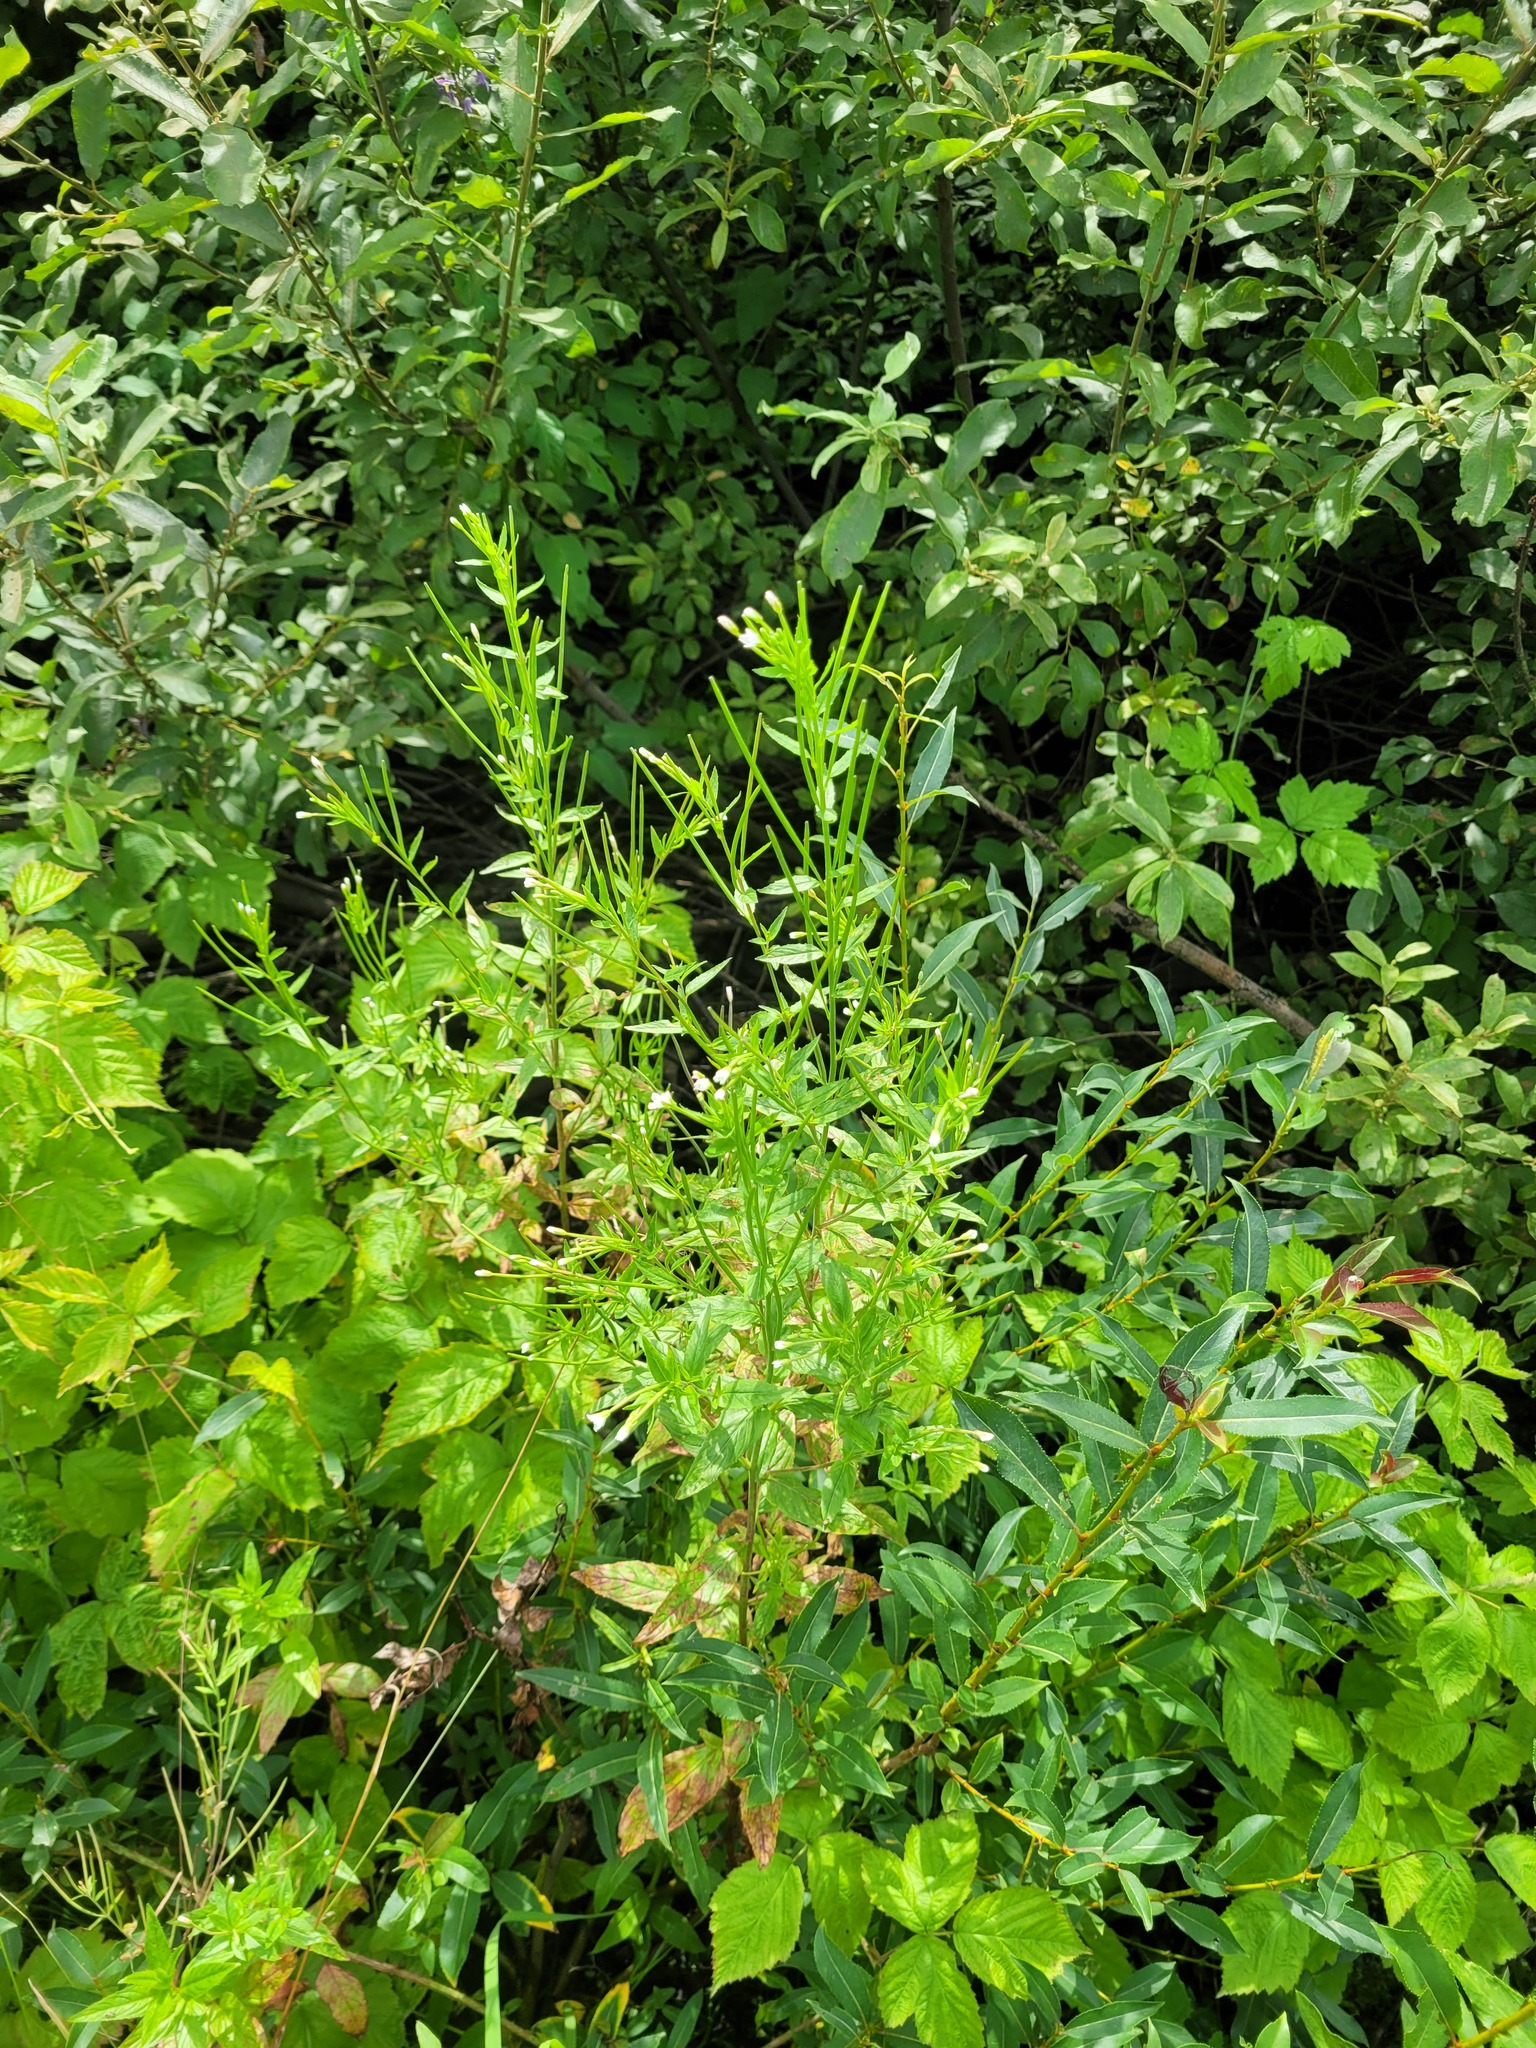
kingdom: Plantae
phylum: Tracheophyta
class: Magnoliopsida
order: Myrtales
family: Onagraceae
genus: Epilobium
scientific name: Epilobium pseudorubescens
